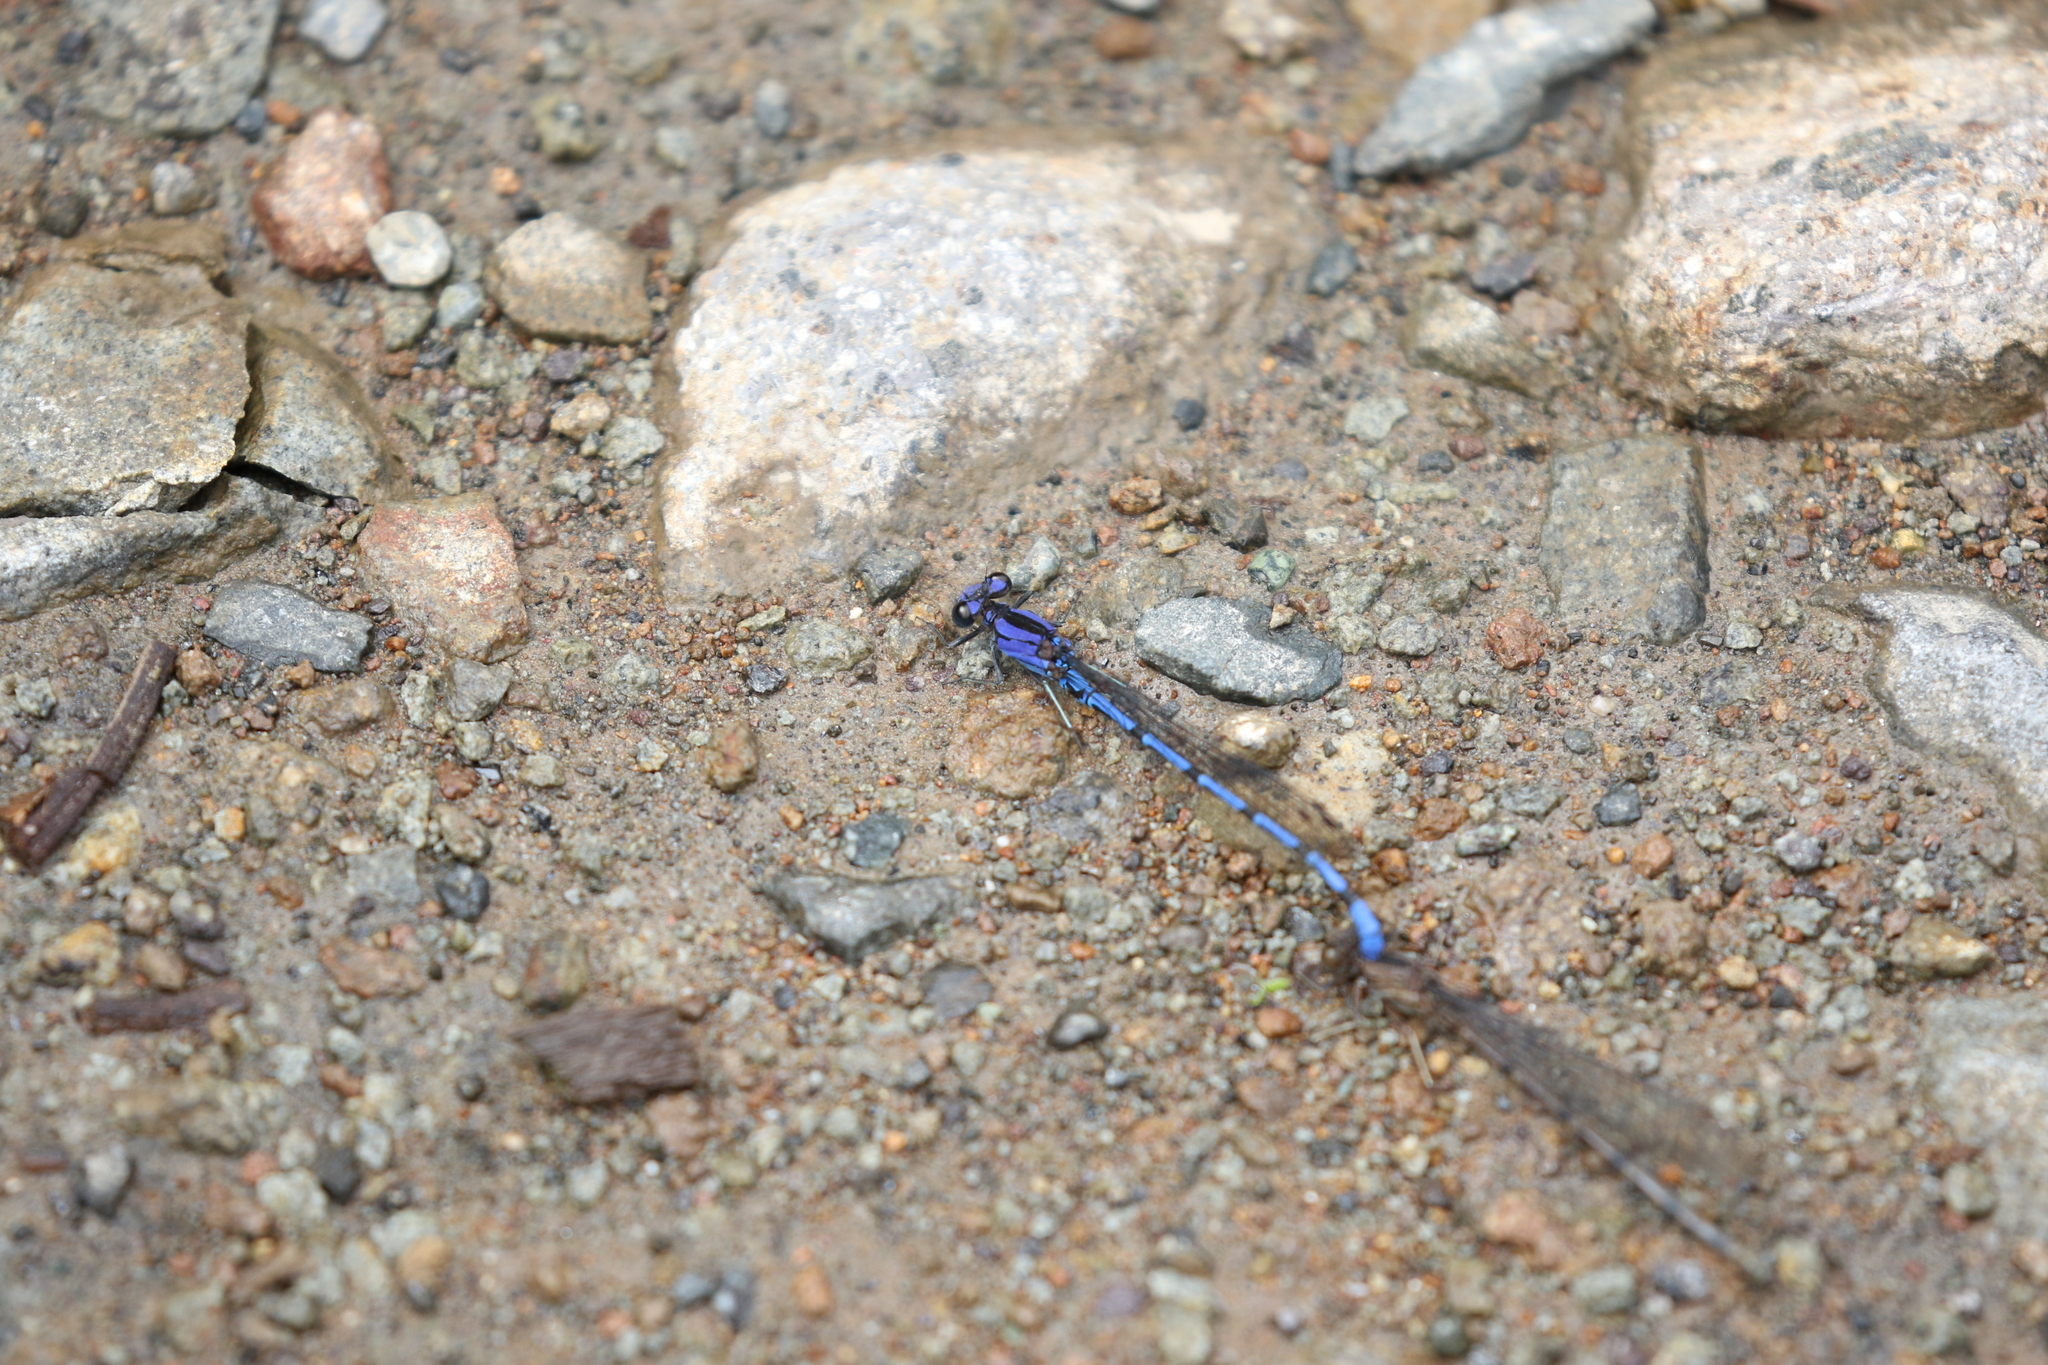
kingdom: Animalia
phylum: Arthropoda
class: Insecta
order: Odonata
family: Coenagrionidae
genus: Argia
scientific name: Argia elongata
